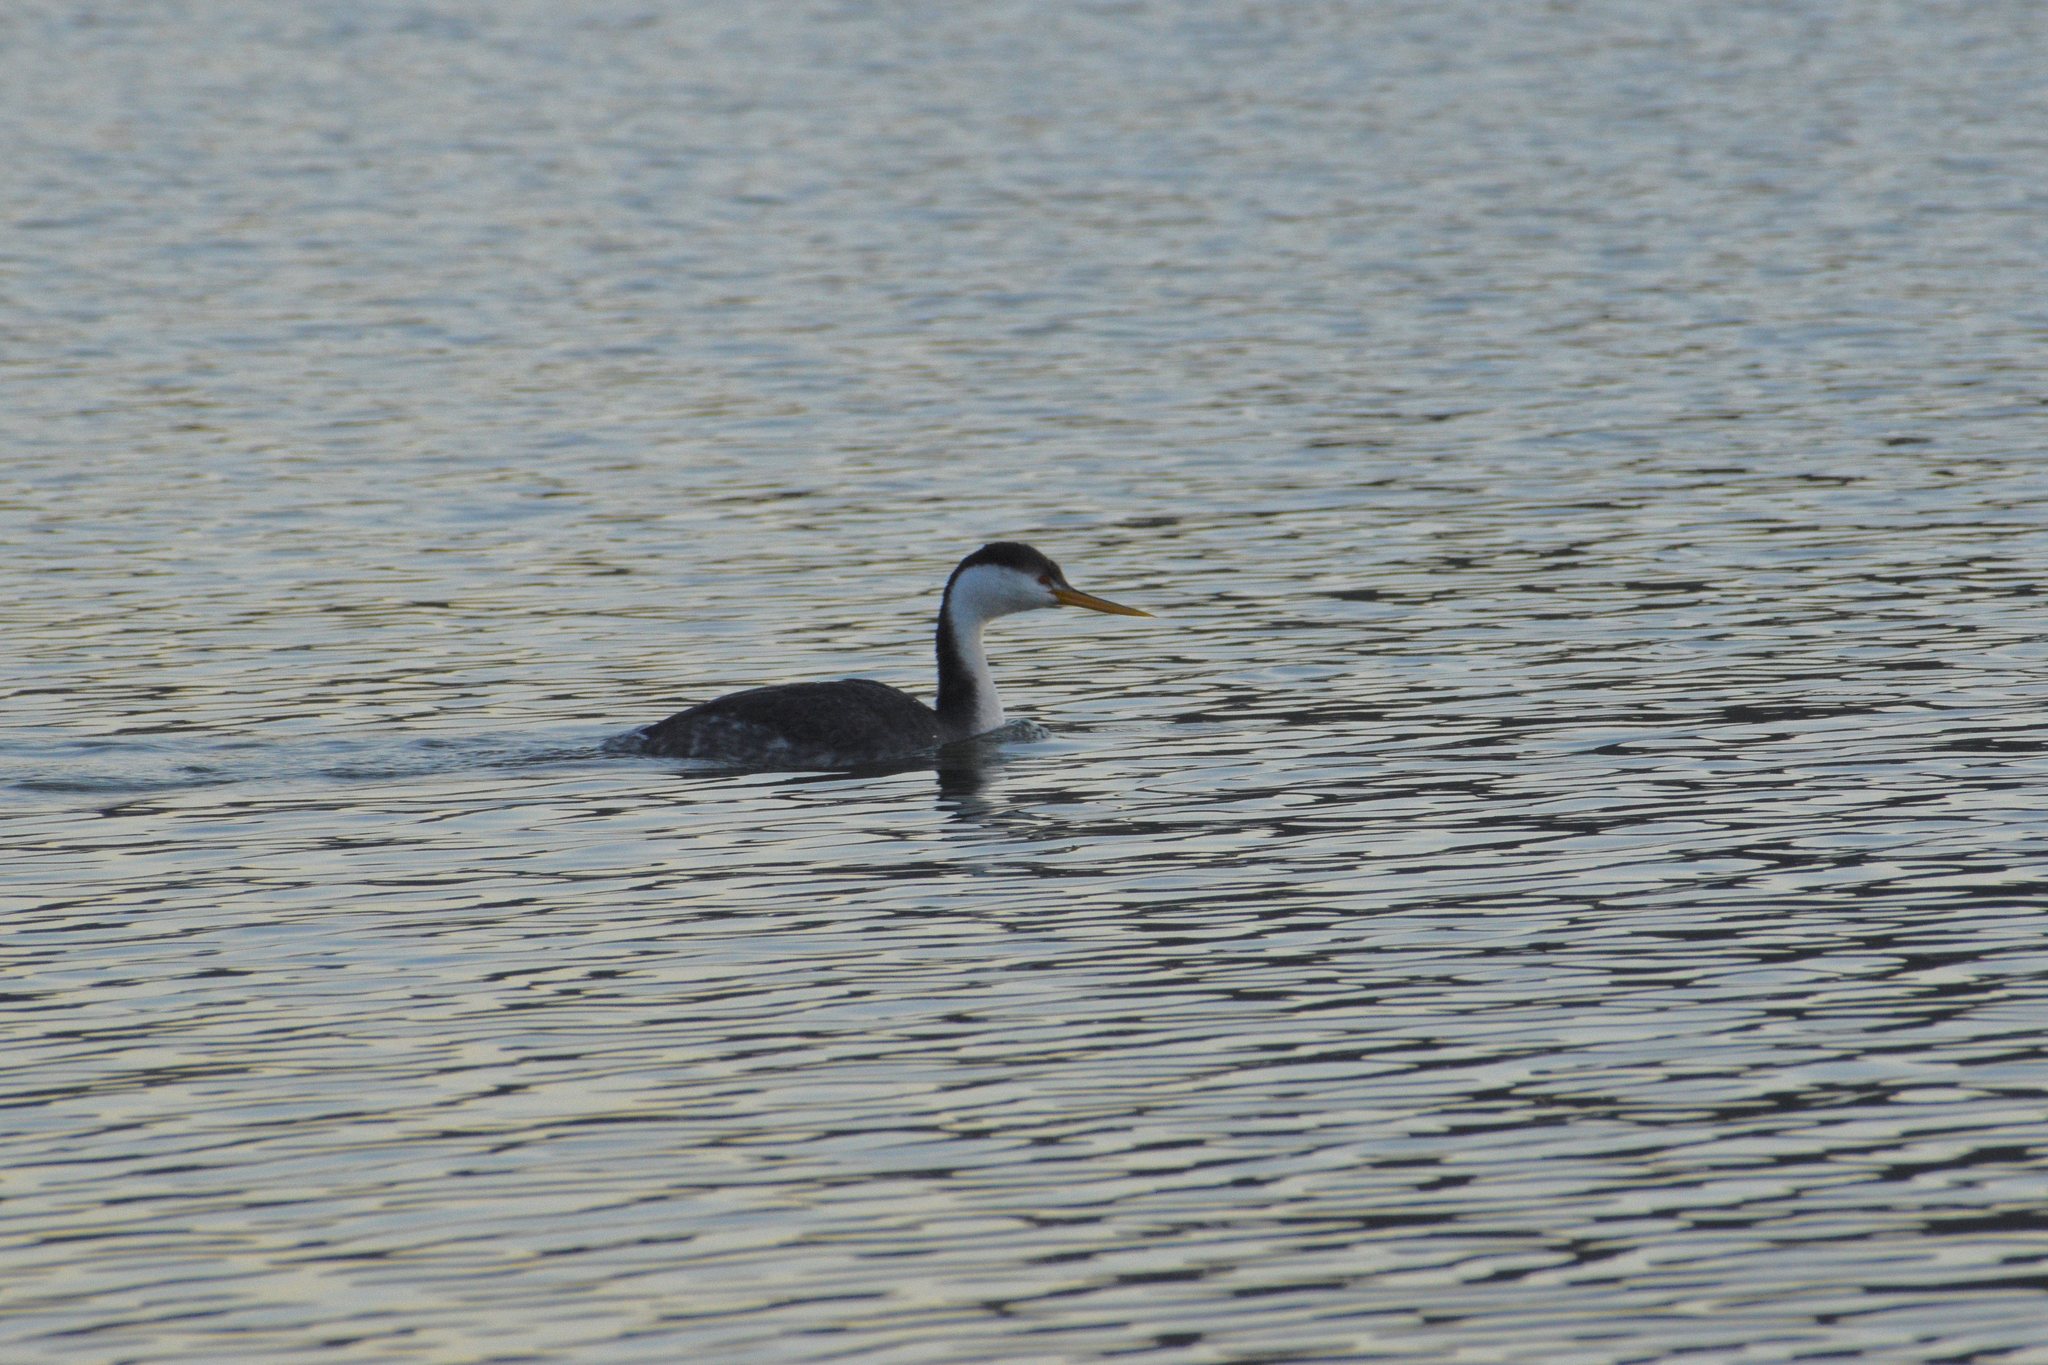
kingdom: Animalia
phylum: Chordata
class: Aves
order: Podicipediformes
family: Podicipedidae
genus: Aechmophorus
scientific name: Aechmophorus clarkii
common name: Clark's grebe
